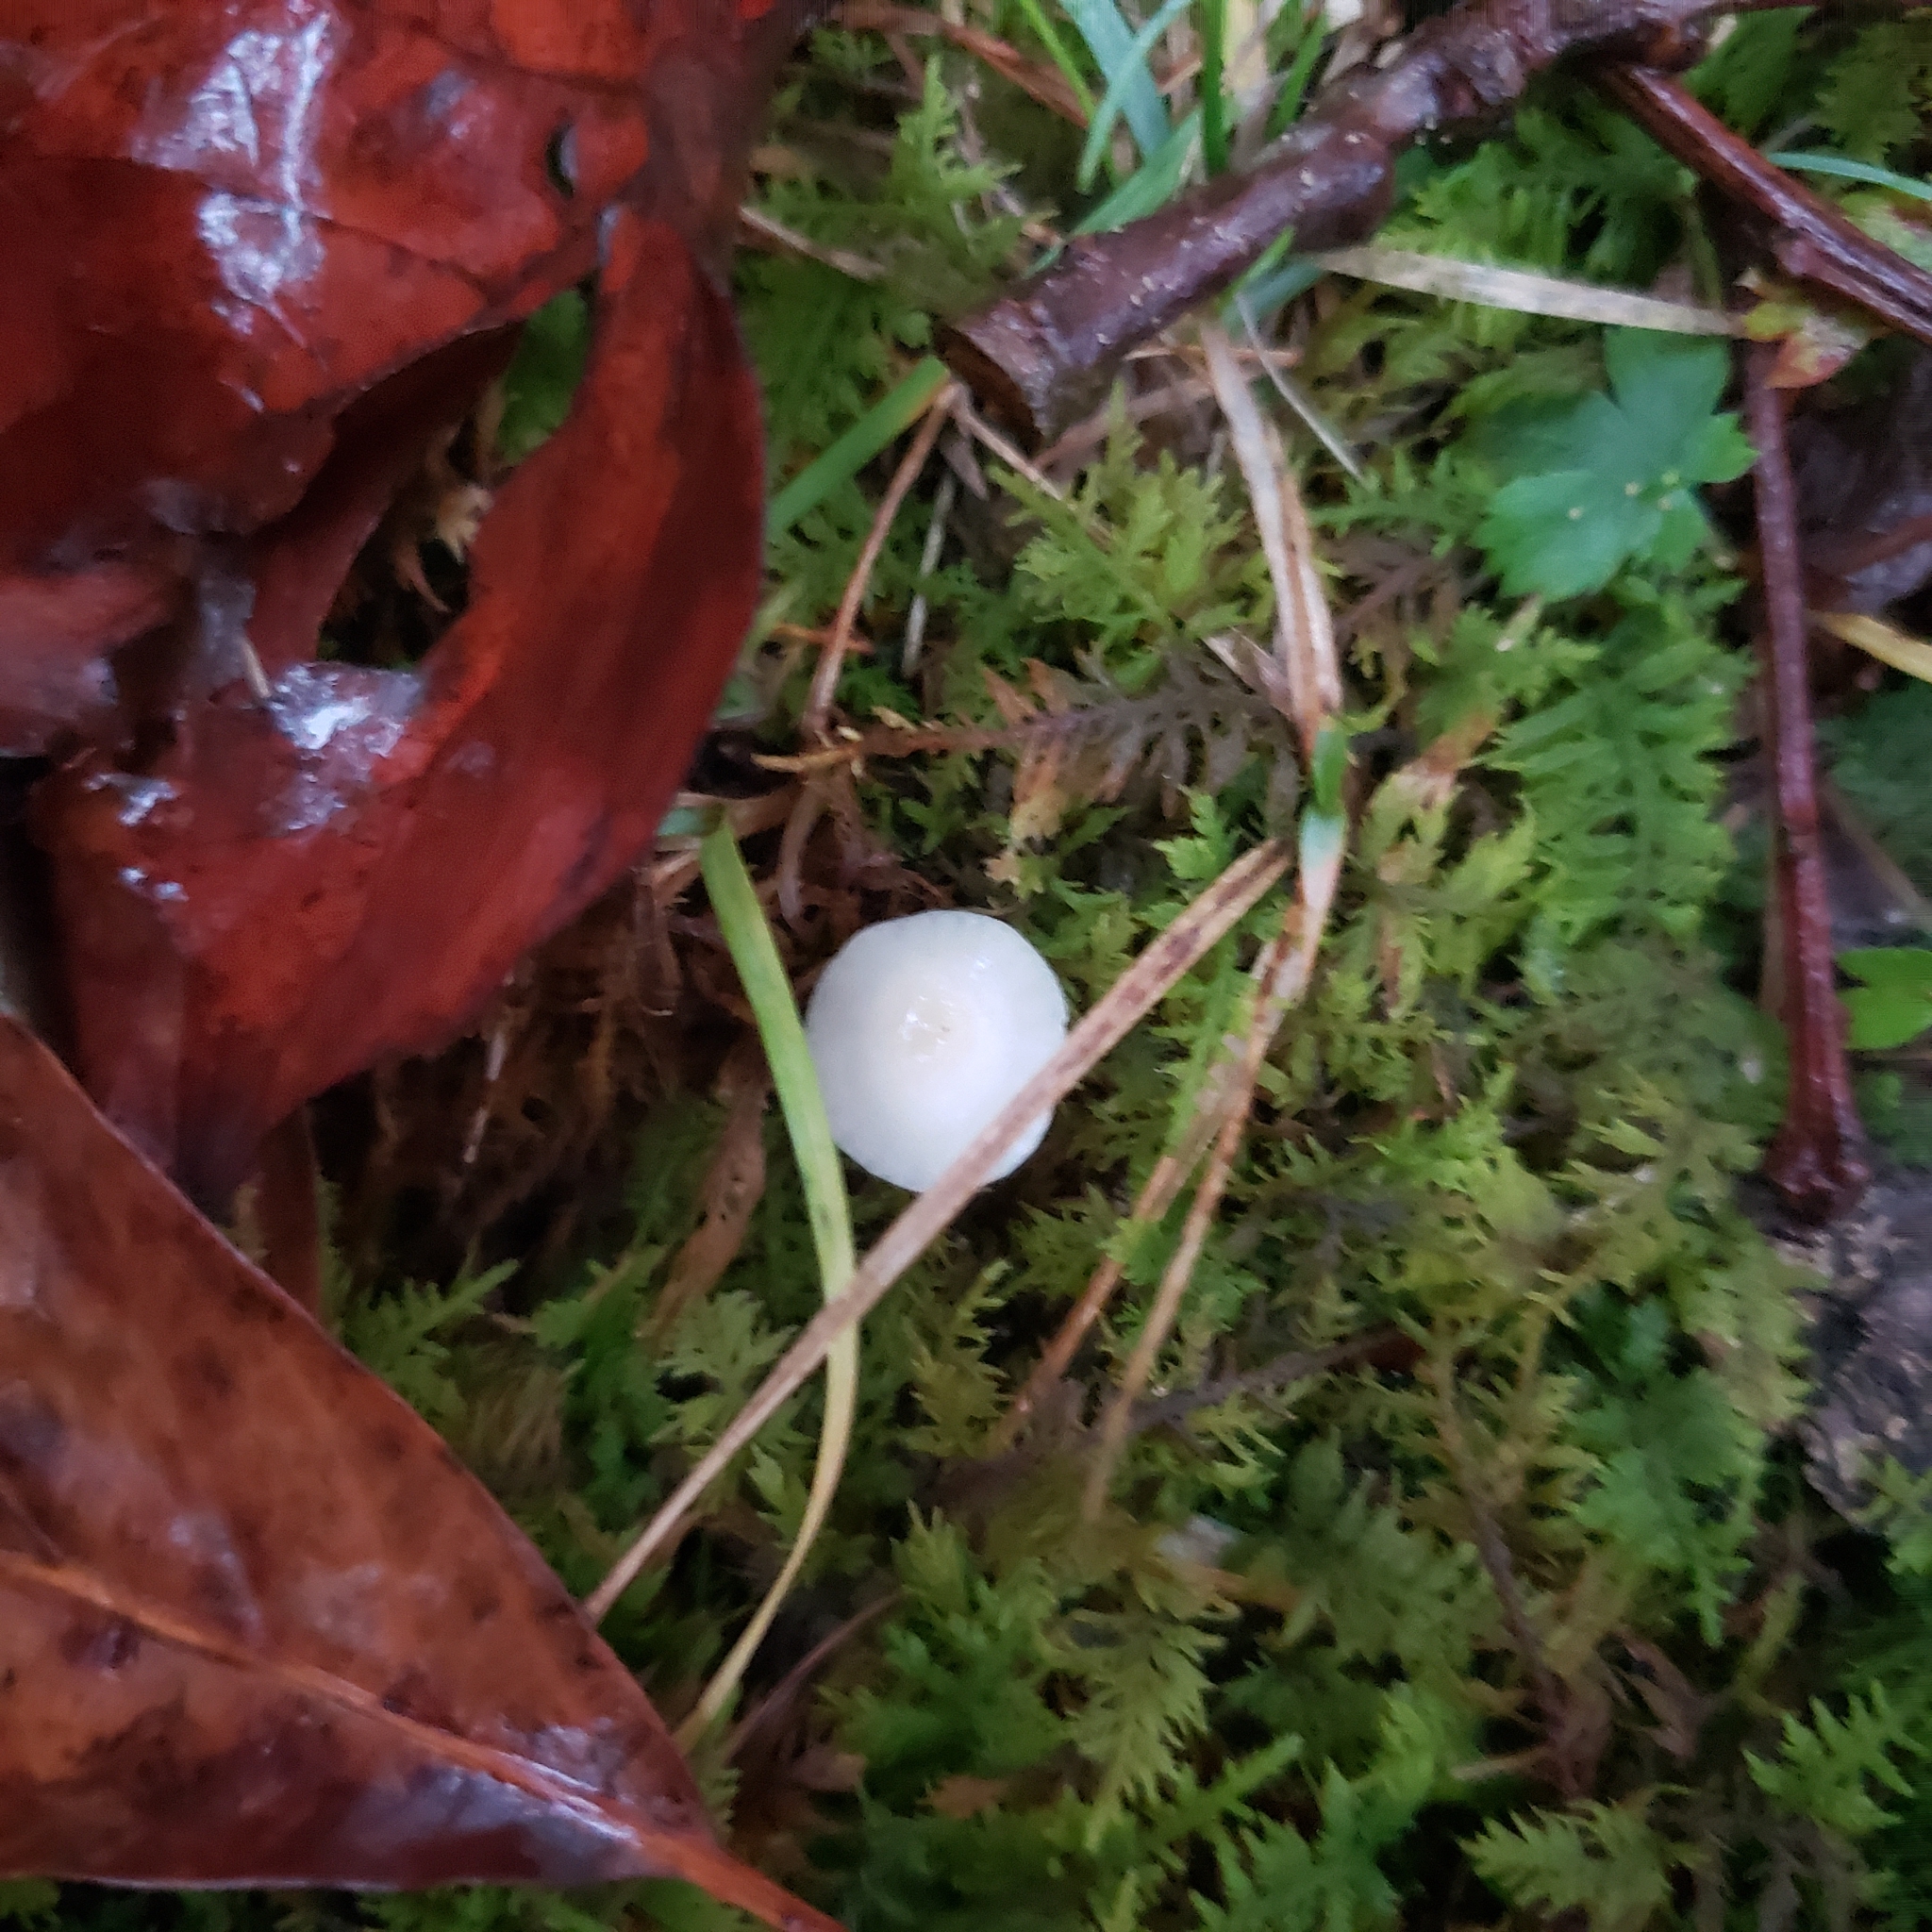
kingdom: Fungi
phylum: Basidiomycota
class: Agaricomycetes
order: Agaricales
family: Hygrophoraceae
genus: Cuphophyllus
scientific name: Cuphophyllus virgineus
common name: Snowy waxcap
